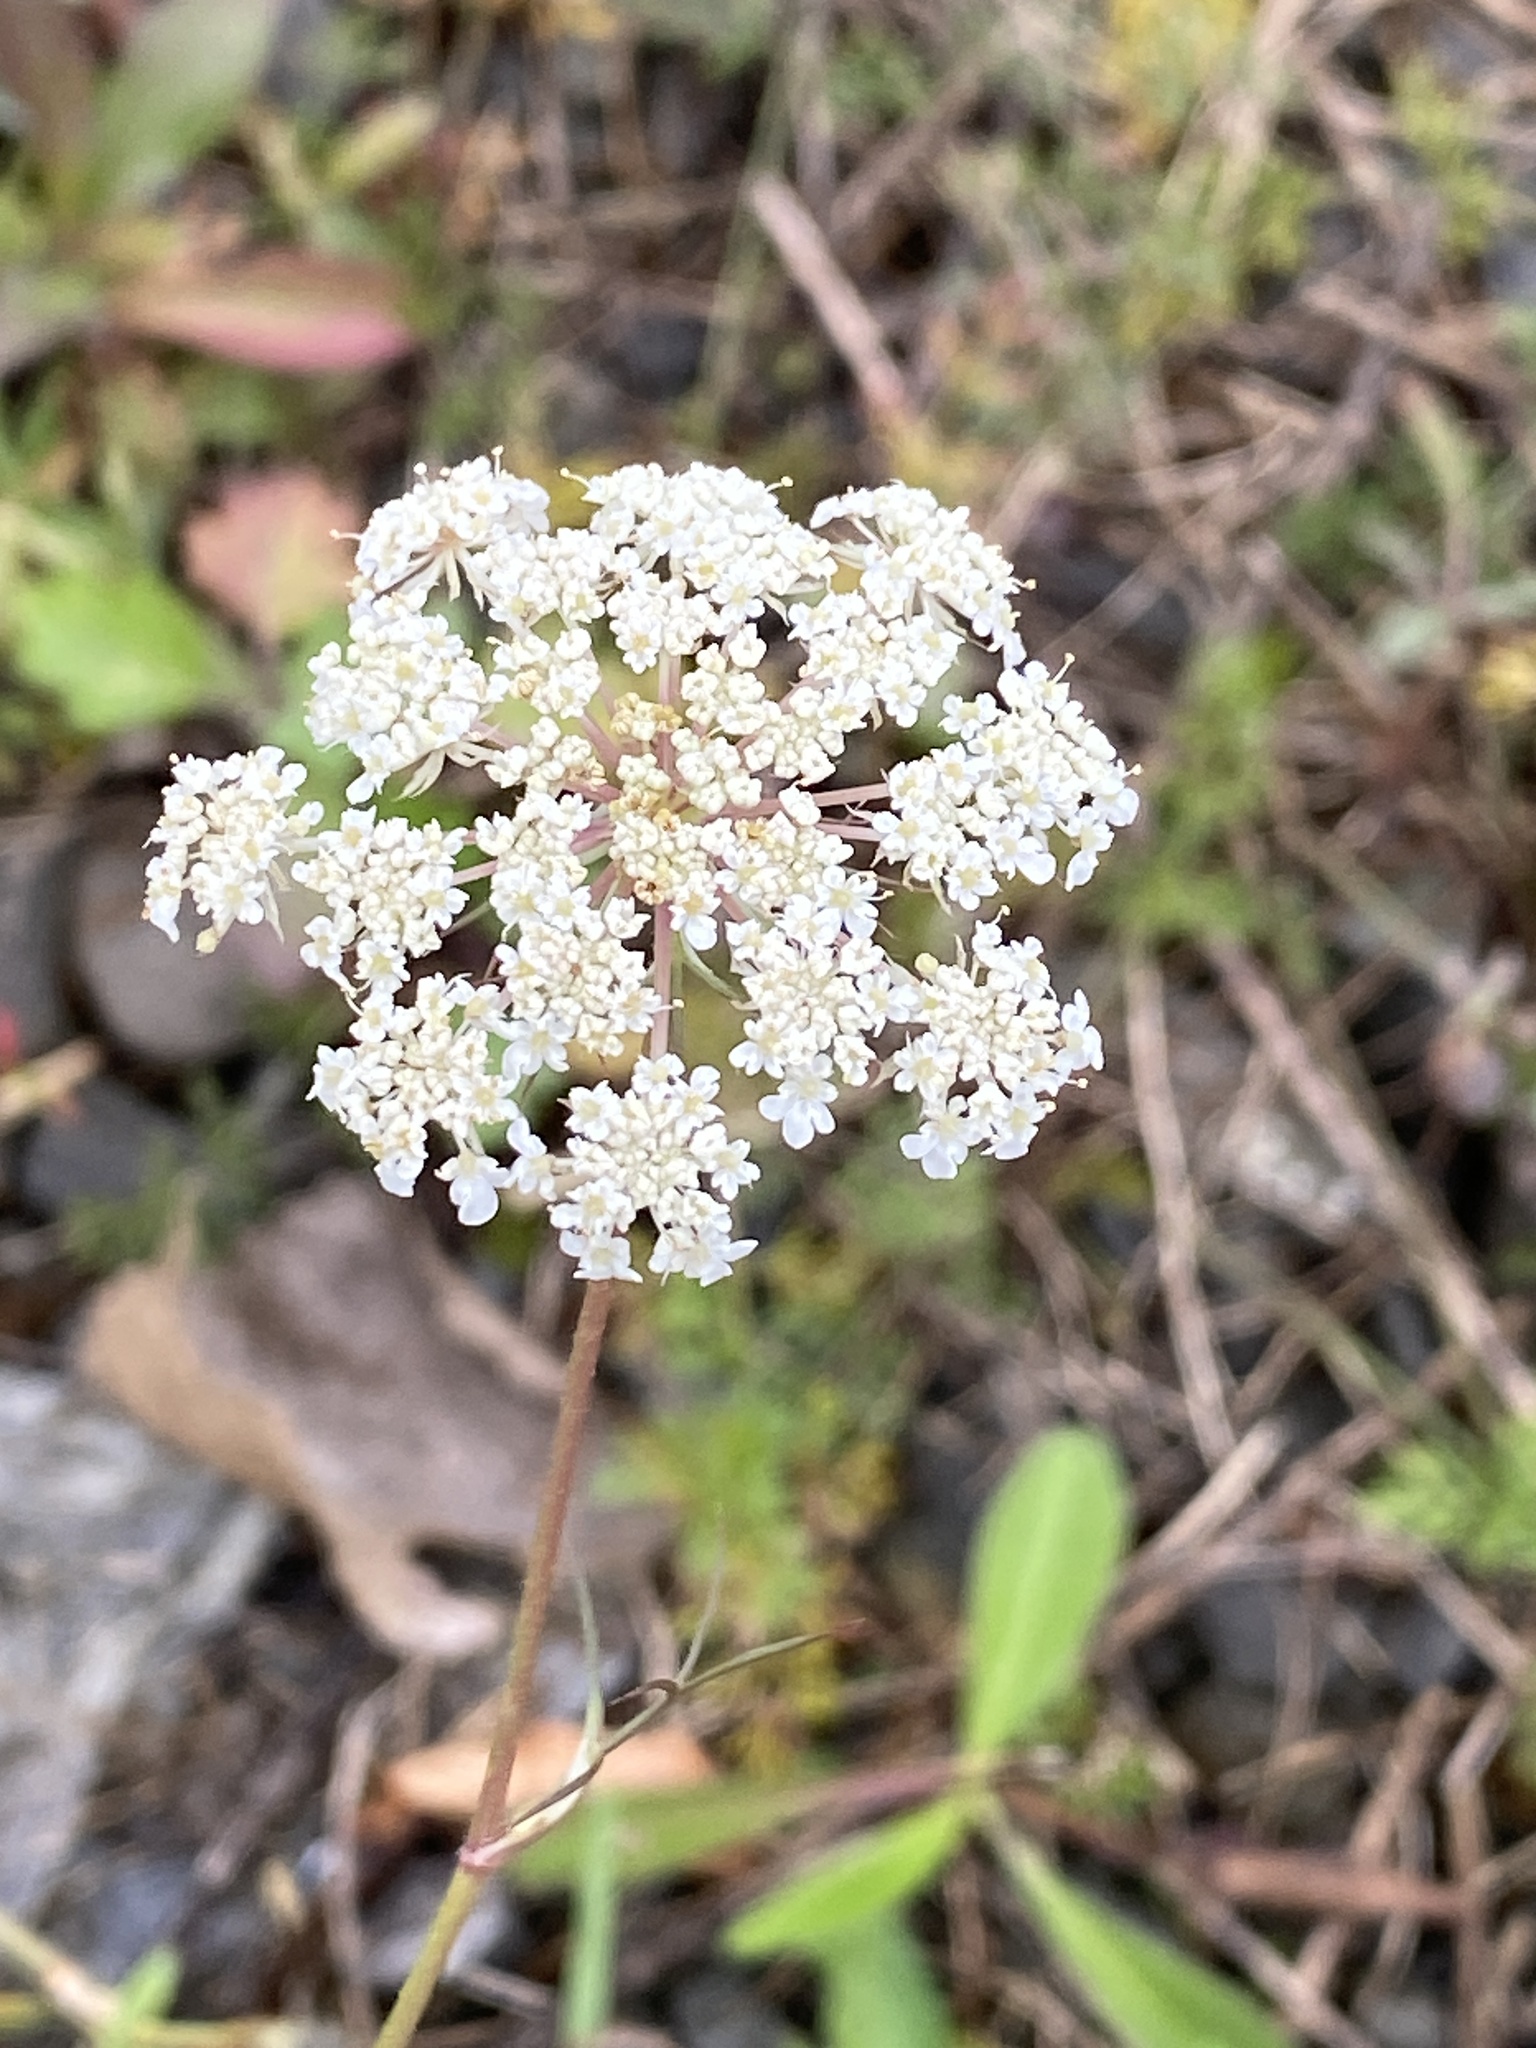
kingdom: Plantae
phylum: Tracheophyta
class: Magnoliopsida
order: Apiales
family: Apiaceae
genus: Daucus
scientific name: Daucus carota
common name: Wild carrot
